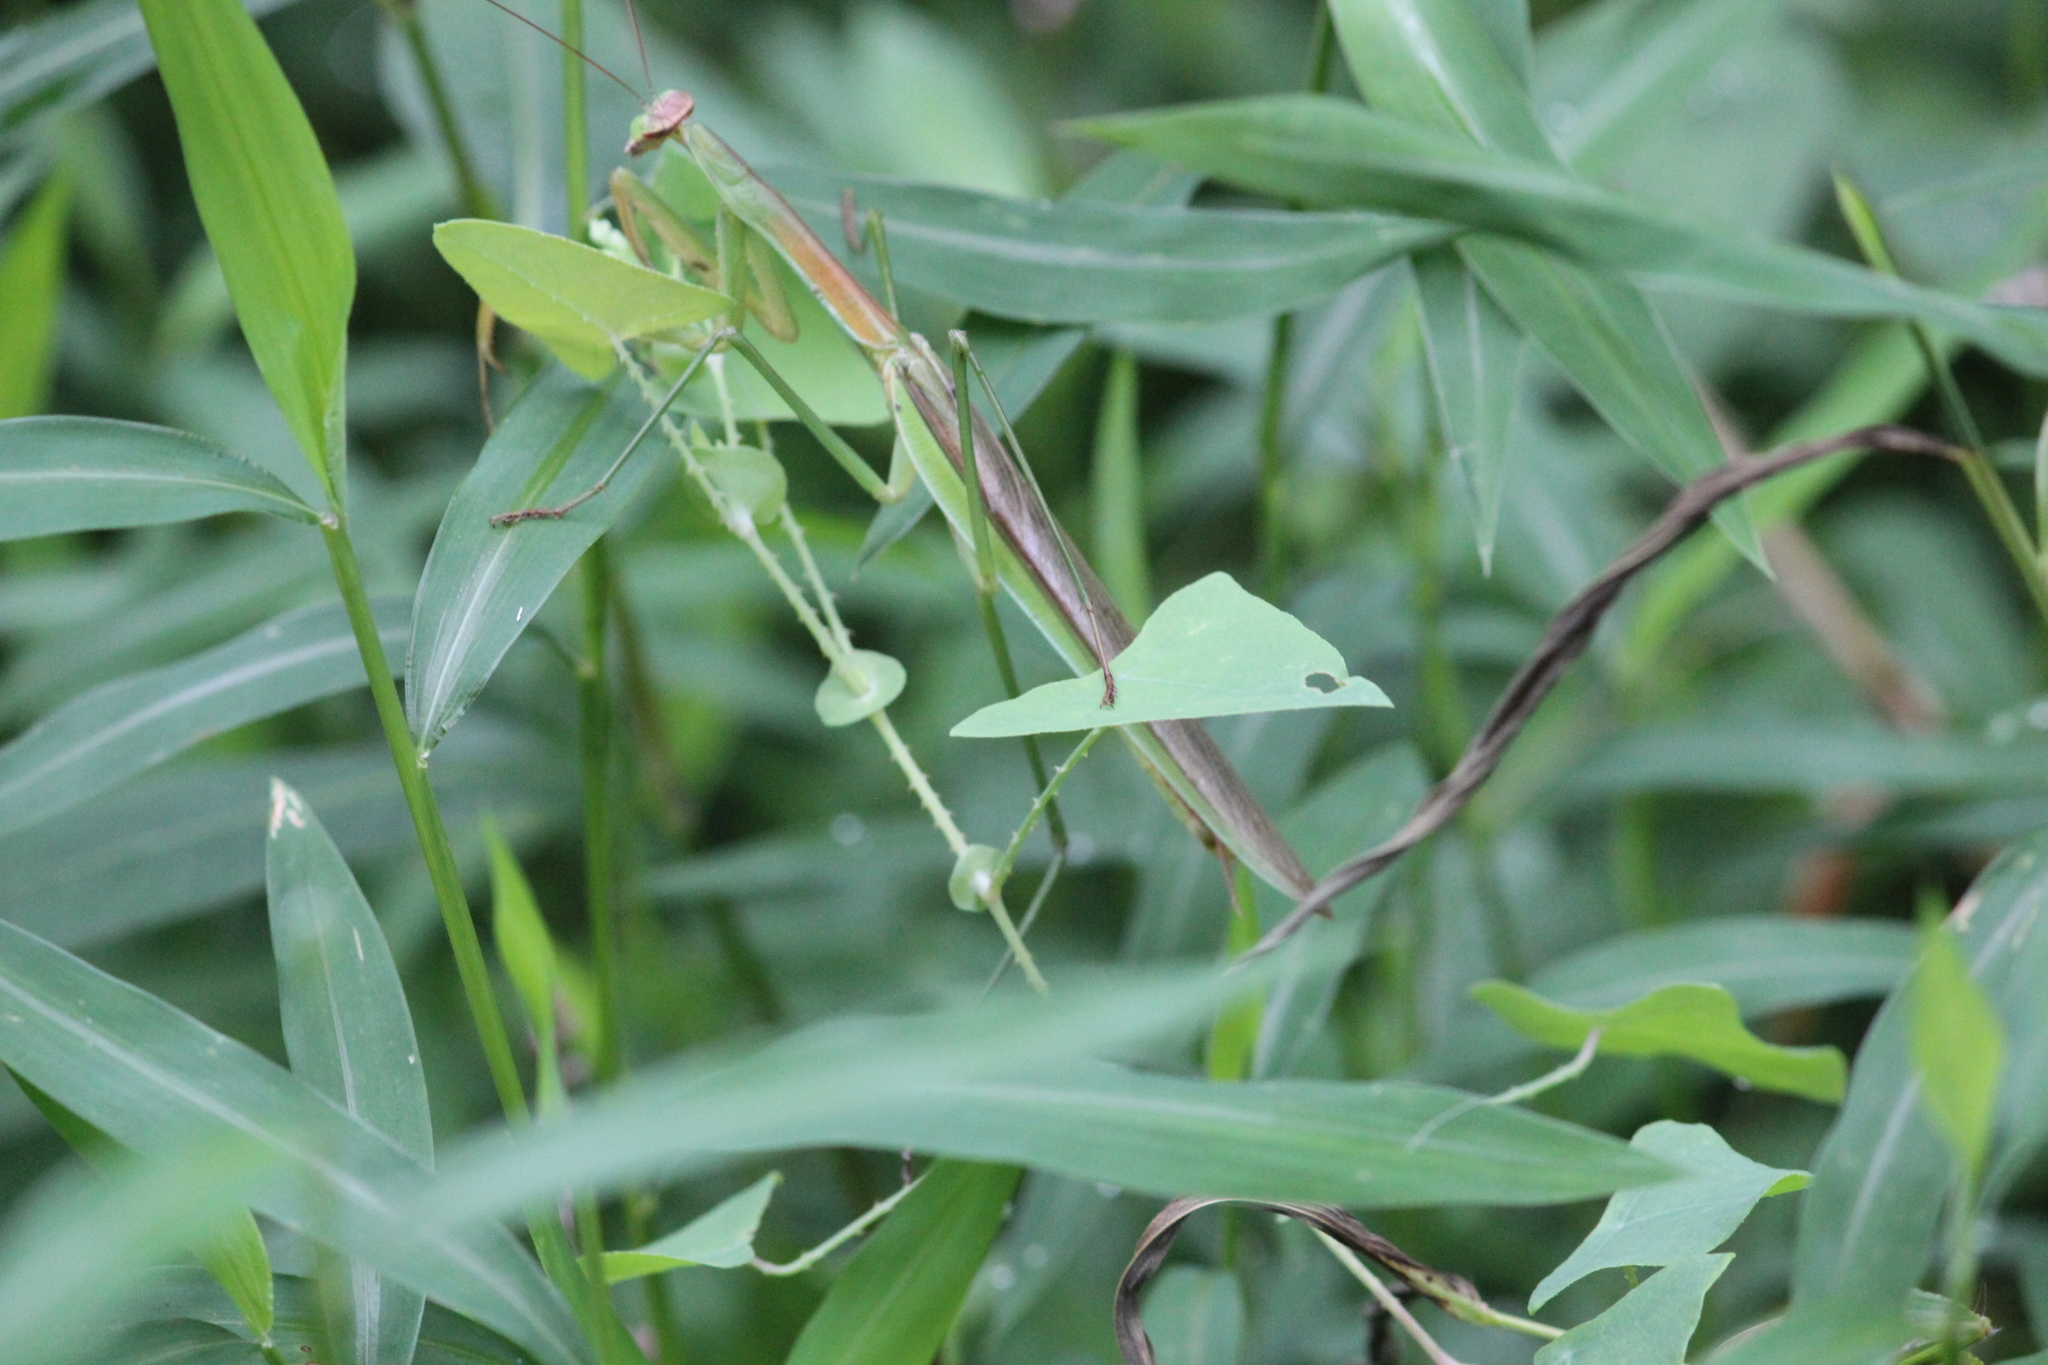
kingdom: Animalia
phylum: Arthropoda
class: Insecta
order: Mantodea
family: Mantidae
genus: Tenodera
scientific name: Tenodera sinensis
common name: Chinese mantis
